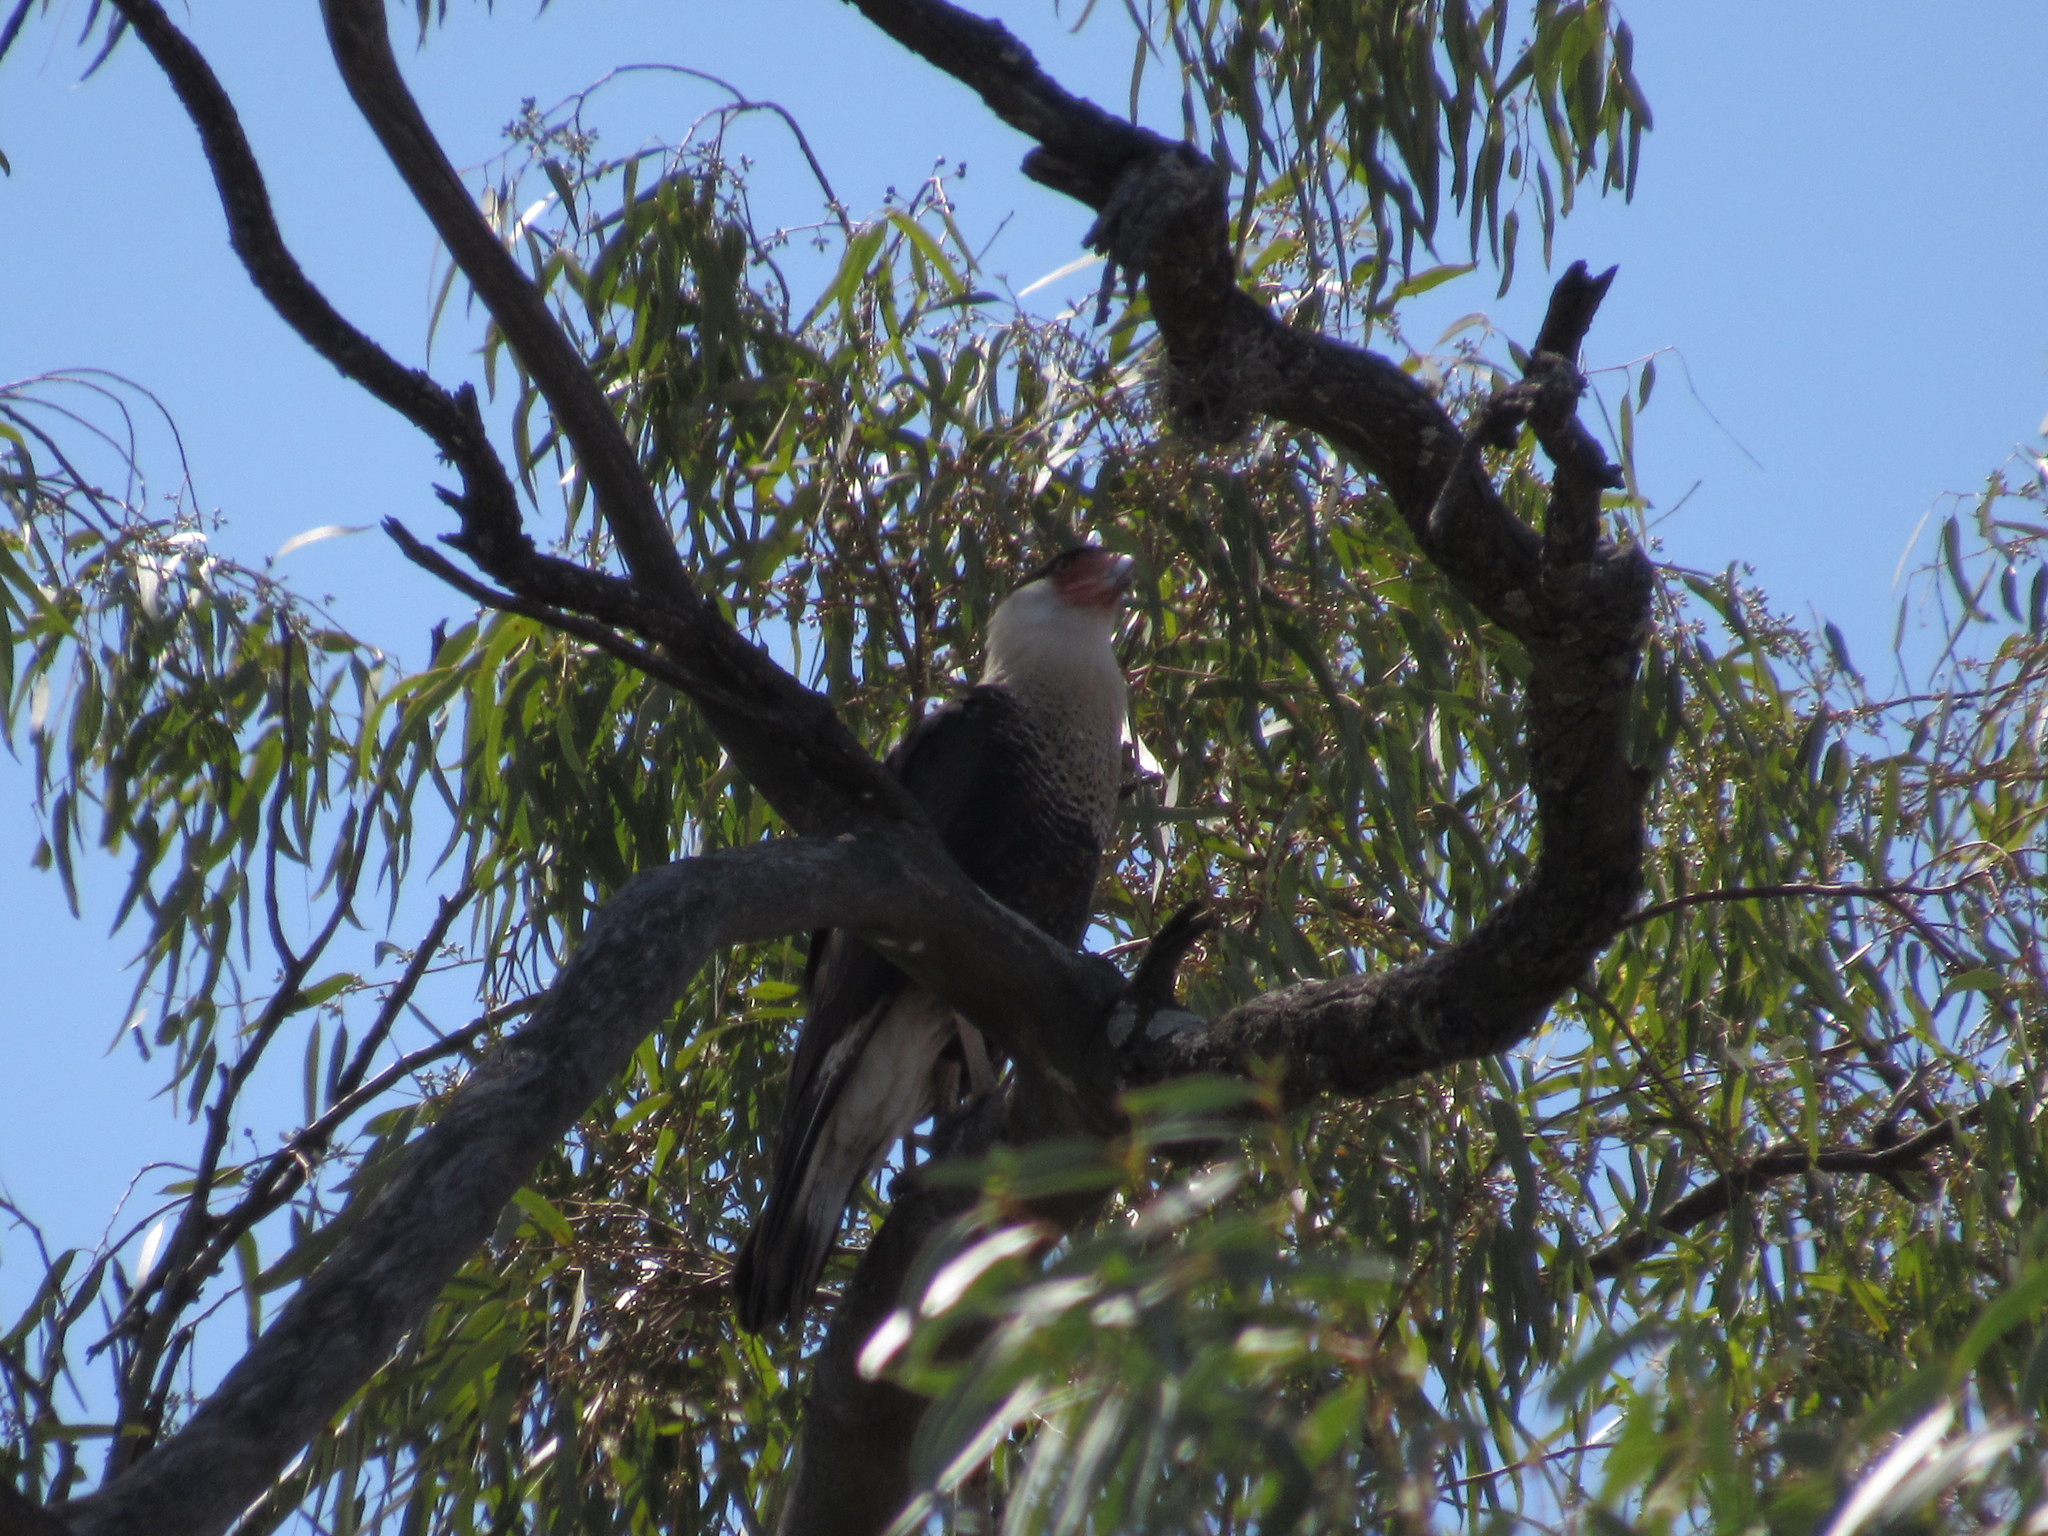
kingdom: Animalia
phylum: Chordata
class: Aves
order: Falconiformes
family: Falconidae
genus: Caracara
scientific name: Caracara plancus
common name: Southern caracara
